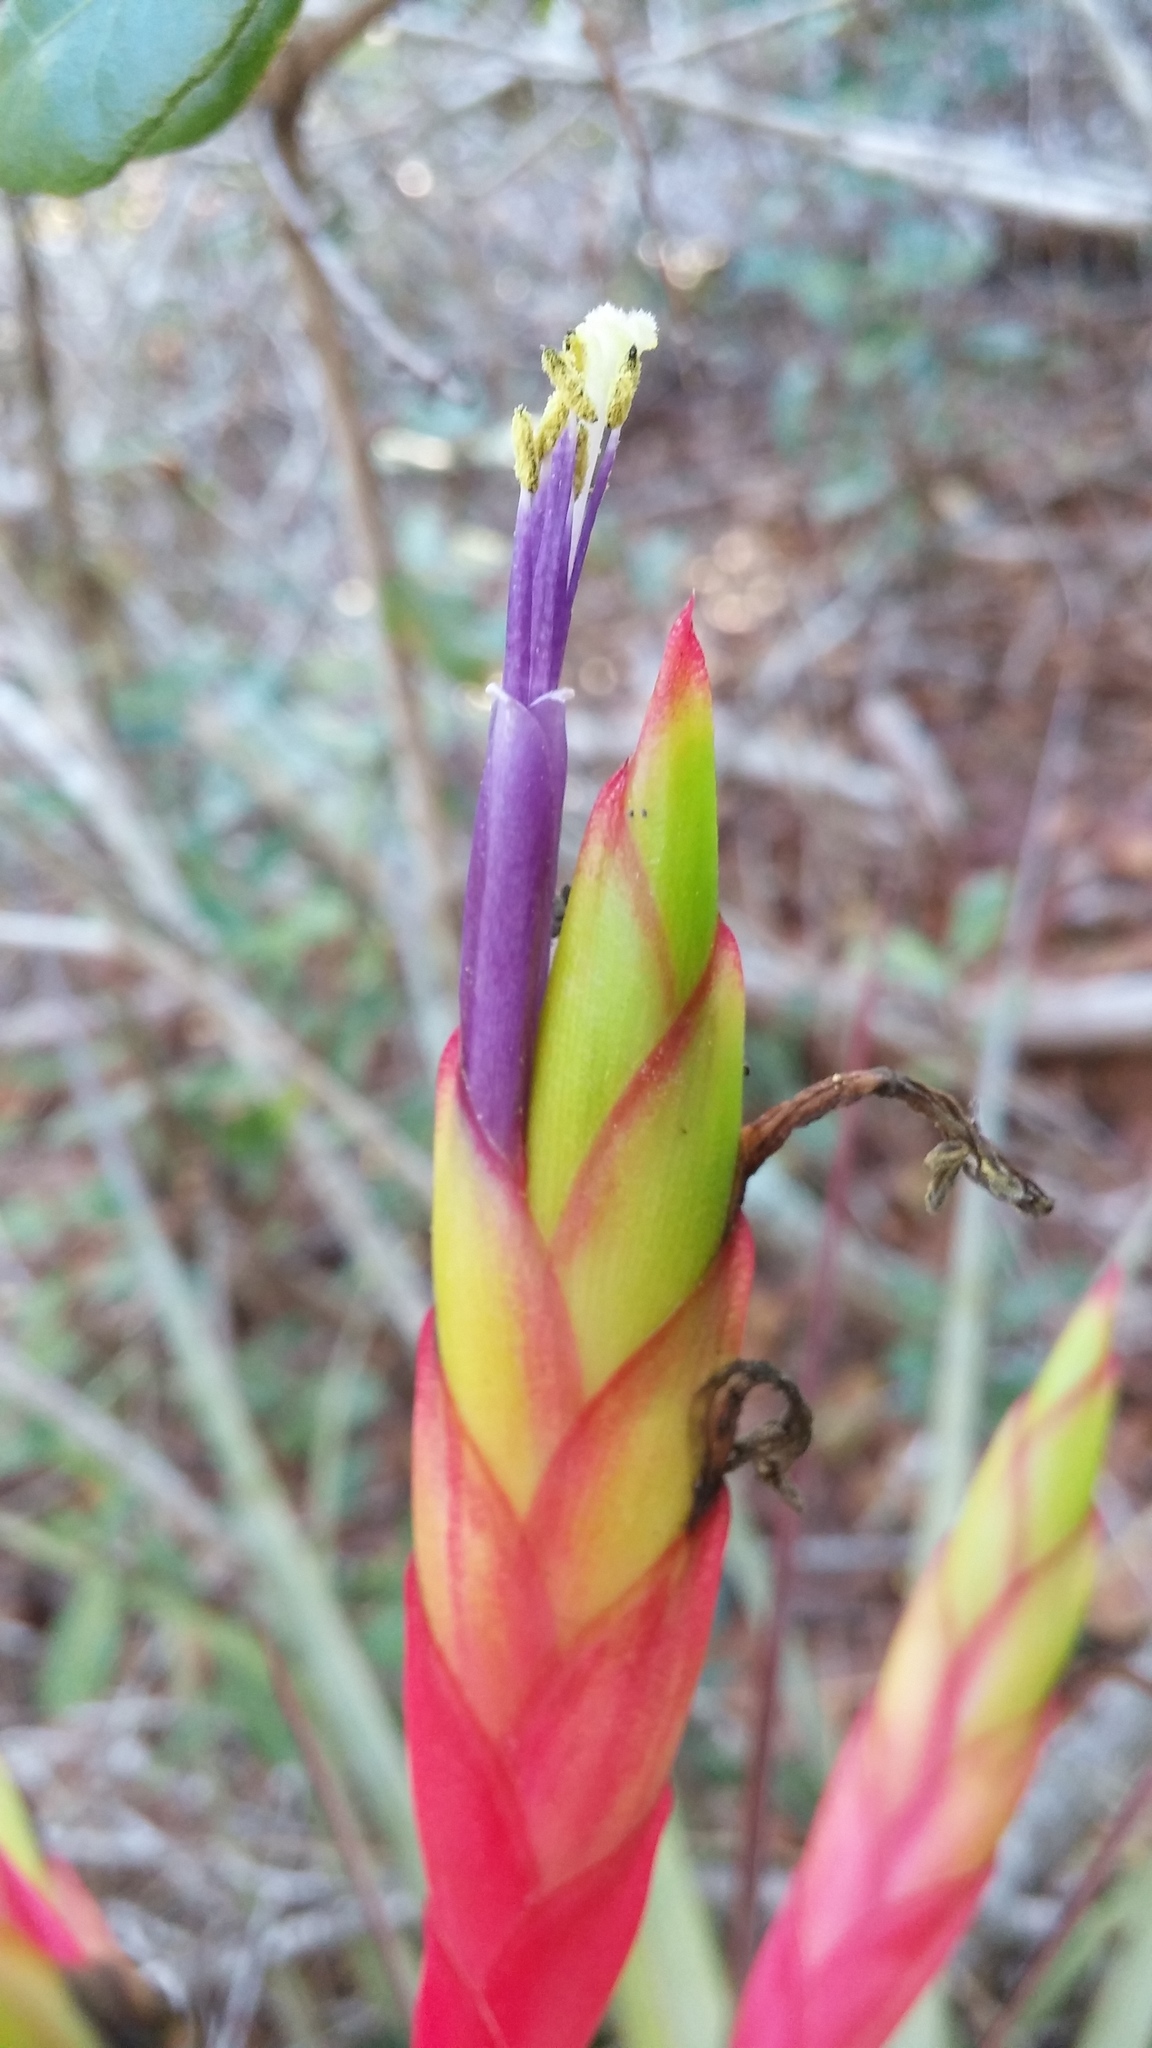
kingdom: Plantae
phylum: Tracheophyta
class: Liliopsida
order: Poales
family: Bromeliaceae
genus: Tillandsia
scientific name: Tillandsia fasciculata
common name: Giant airplant
